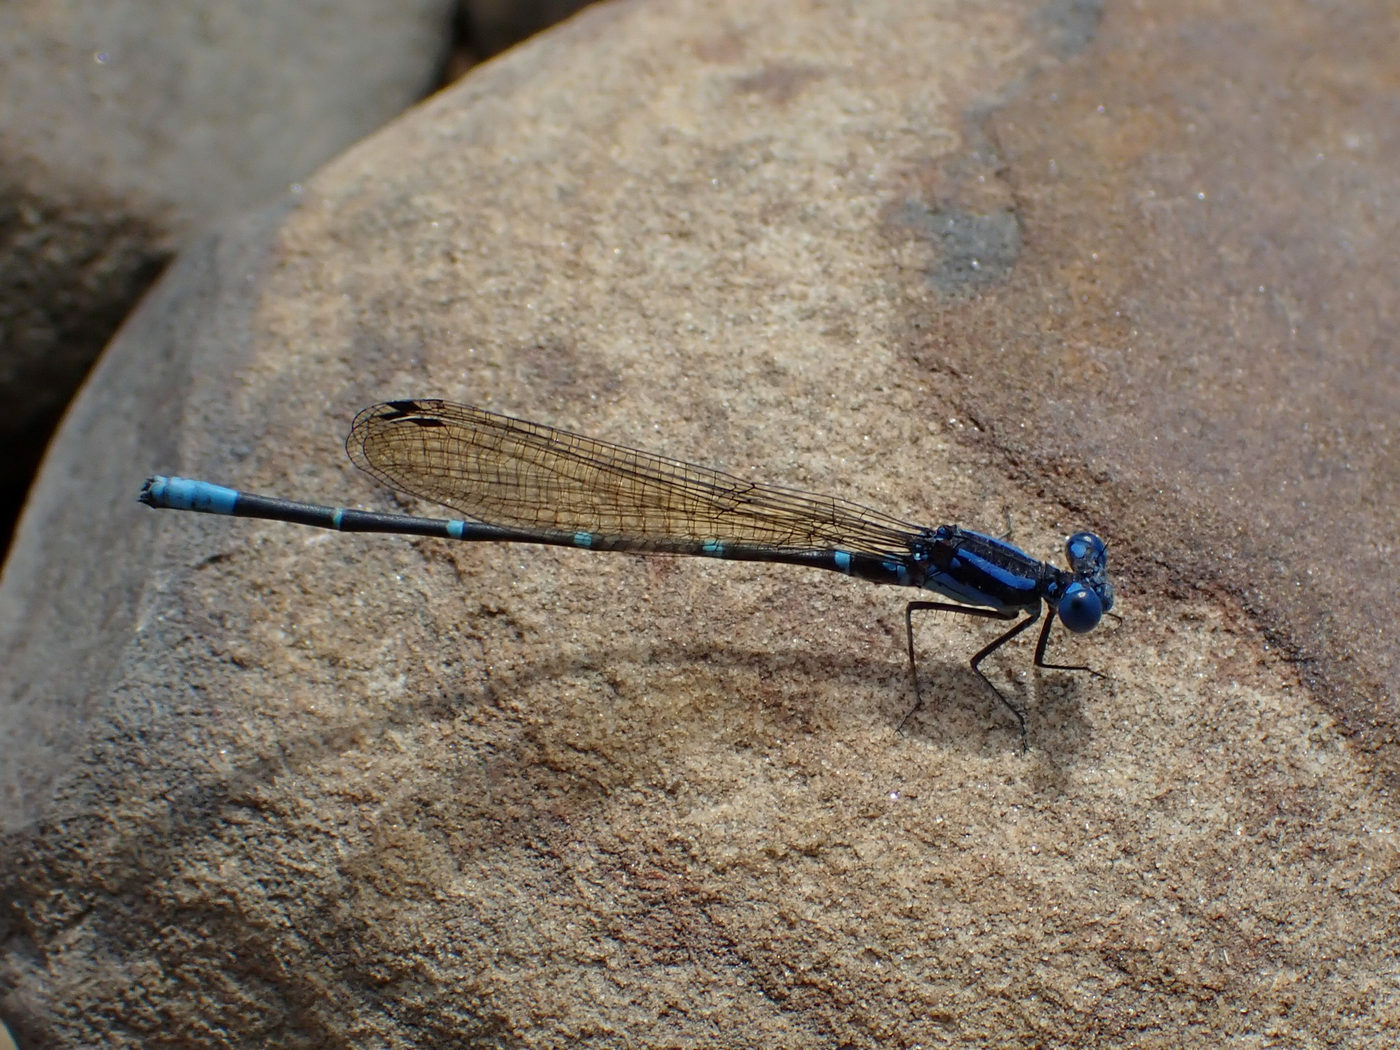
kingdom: Animalia
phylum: Arthropoda
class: Insecta
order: Odonata
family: Coenagrionidae
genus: Argia
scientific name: Argia sedula
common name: Blue-ringed dancer
